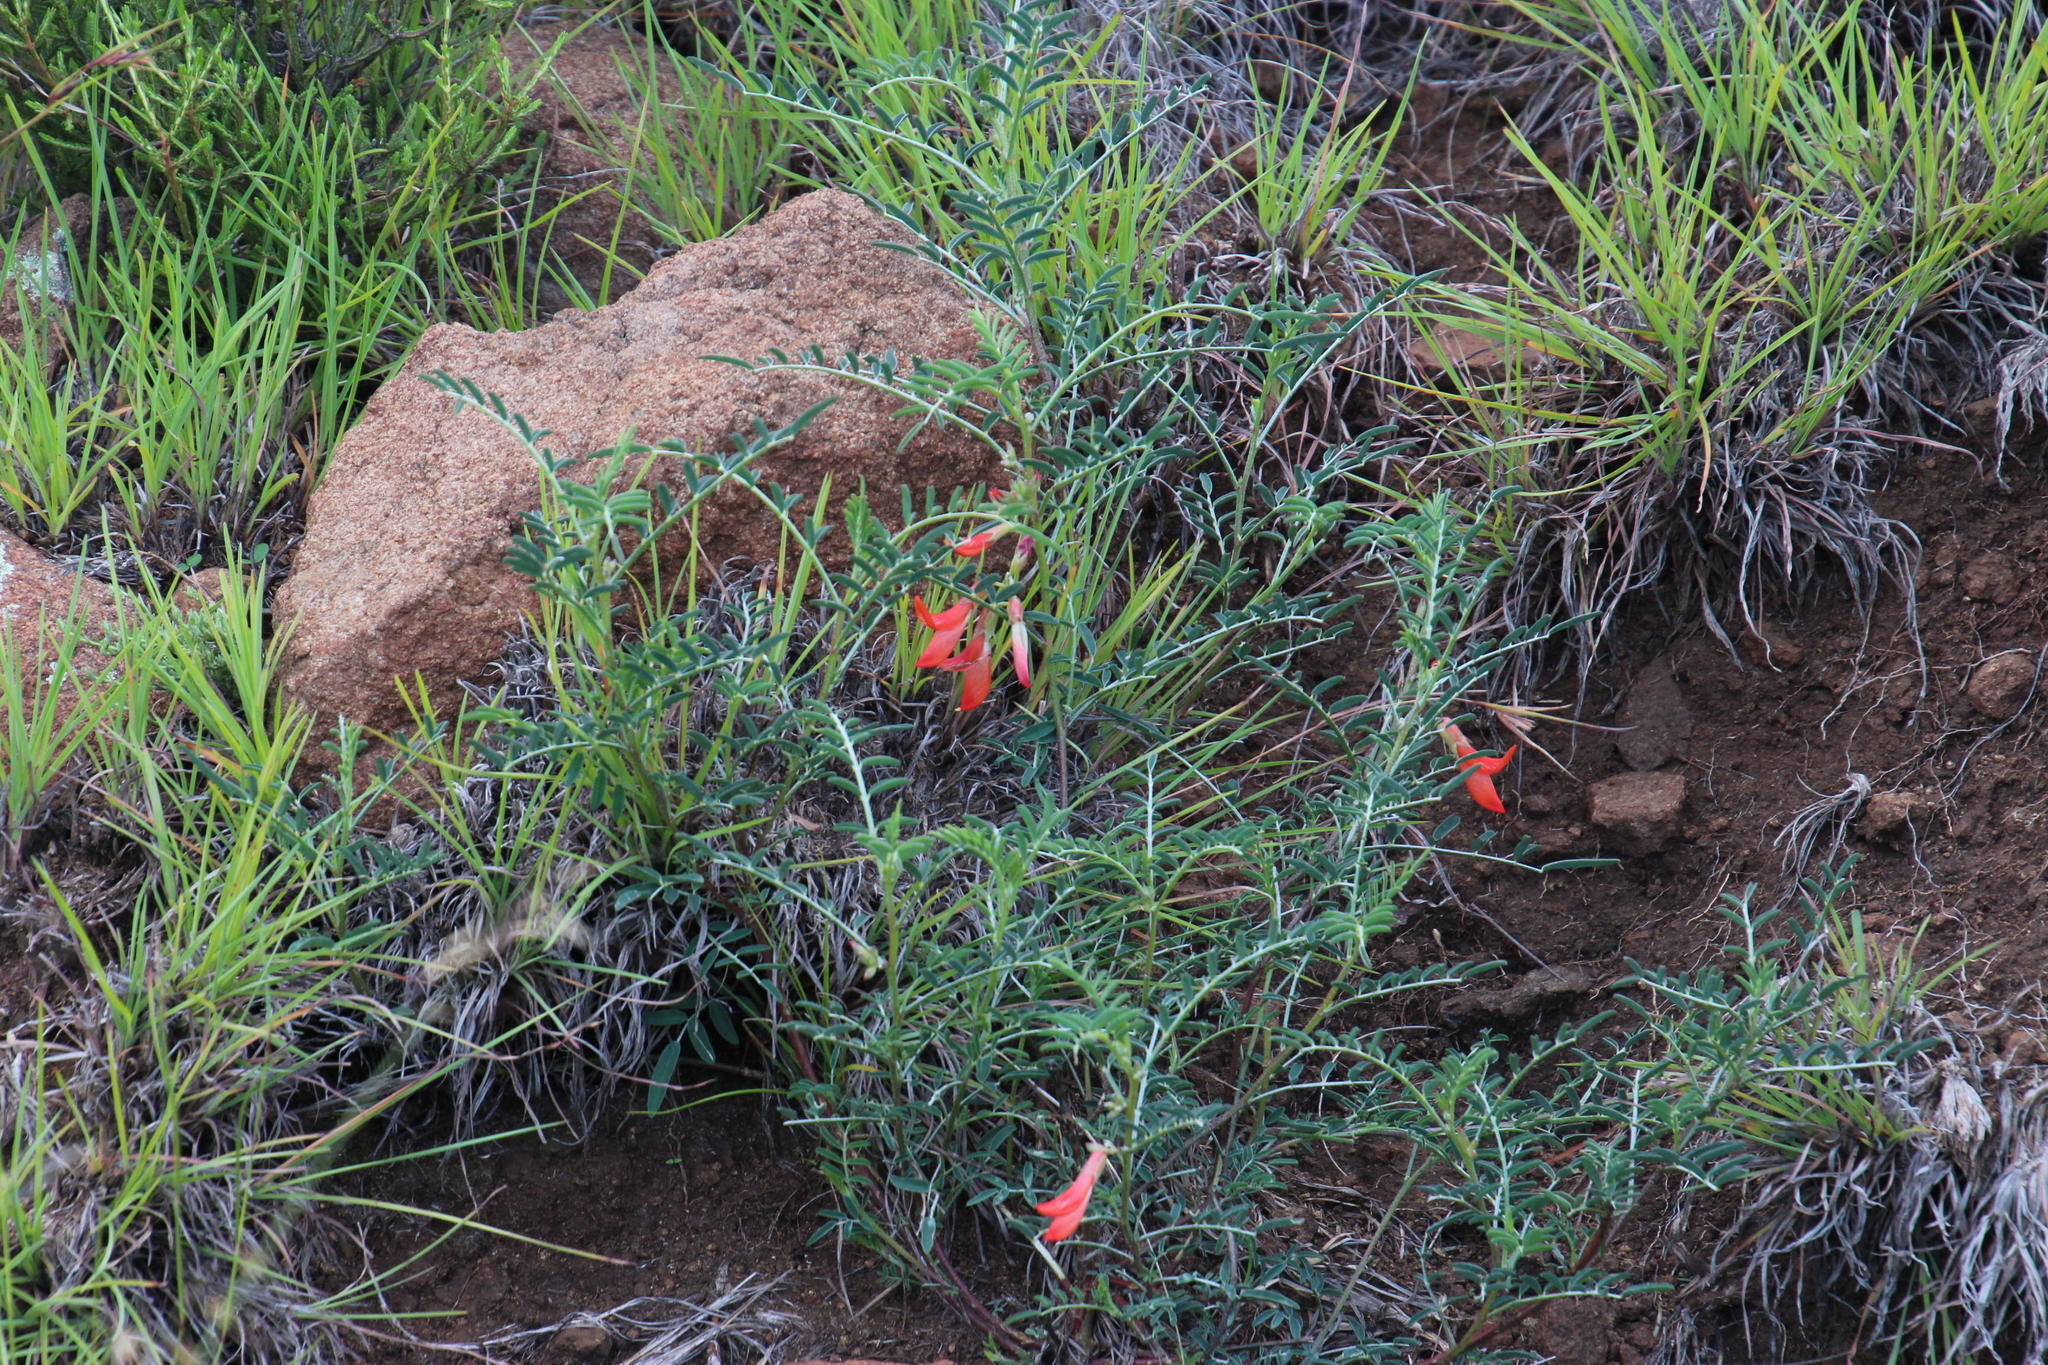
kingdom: Plantae
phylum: Tracheophyta
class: Magnoliopsida
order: Fabales
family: Fabaceae
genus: Lessertia
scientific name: Lessertia frutescens
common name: Balloon-pea
